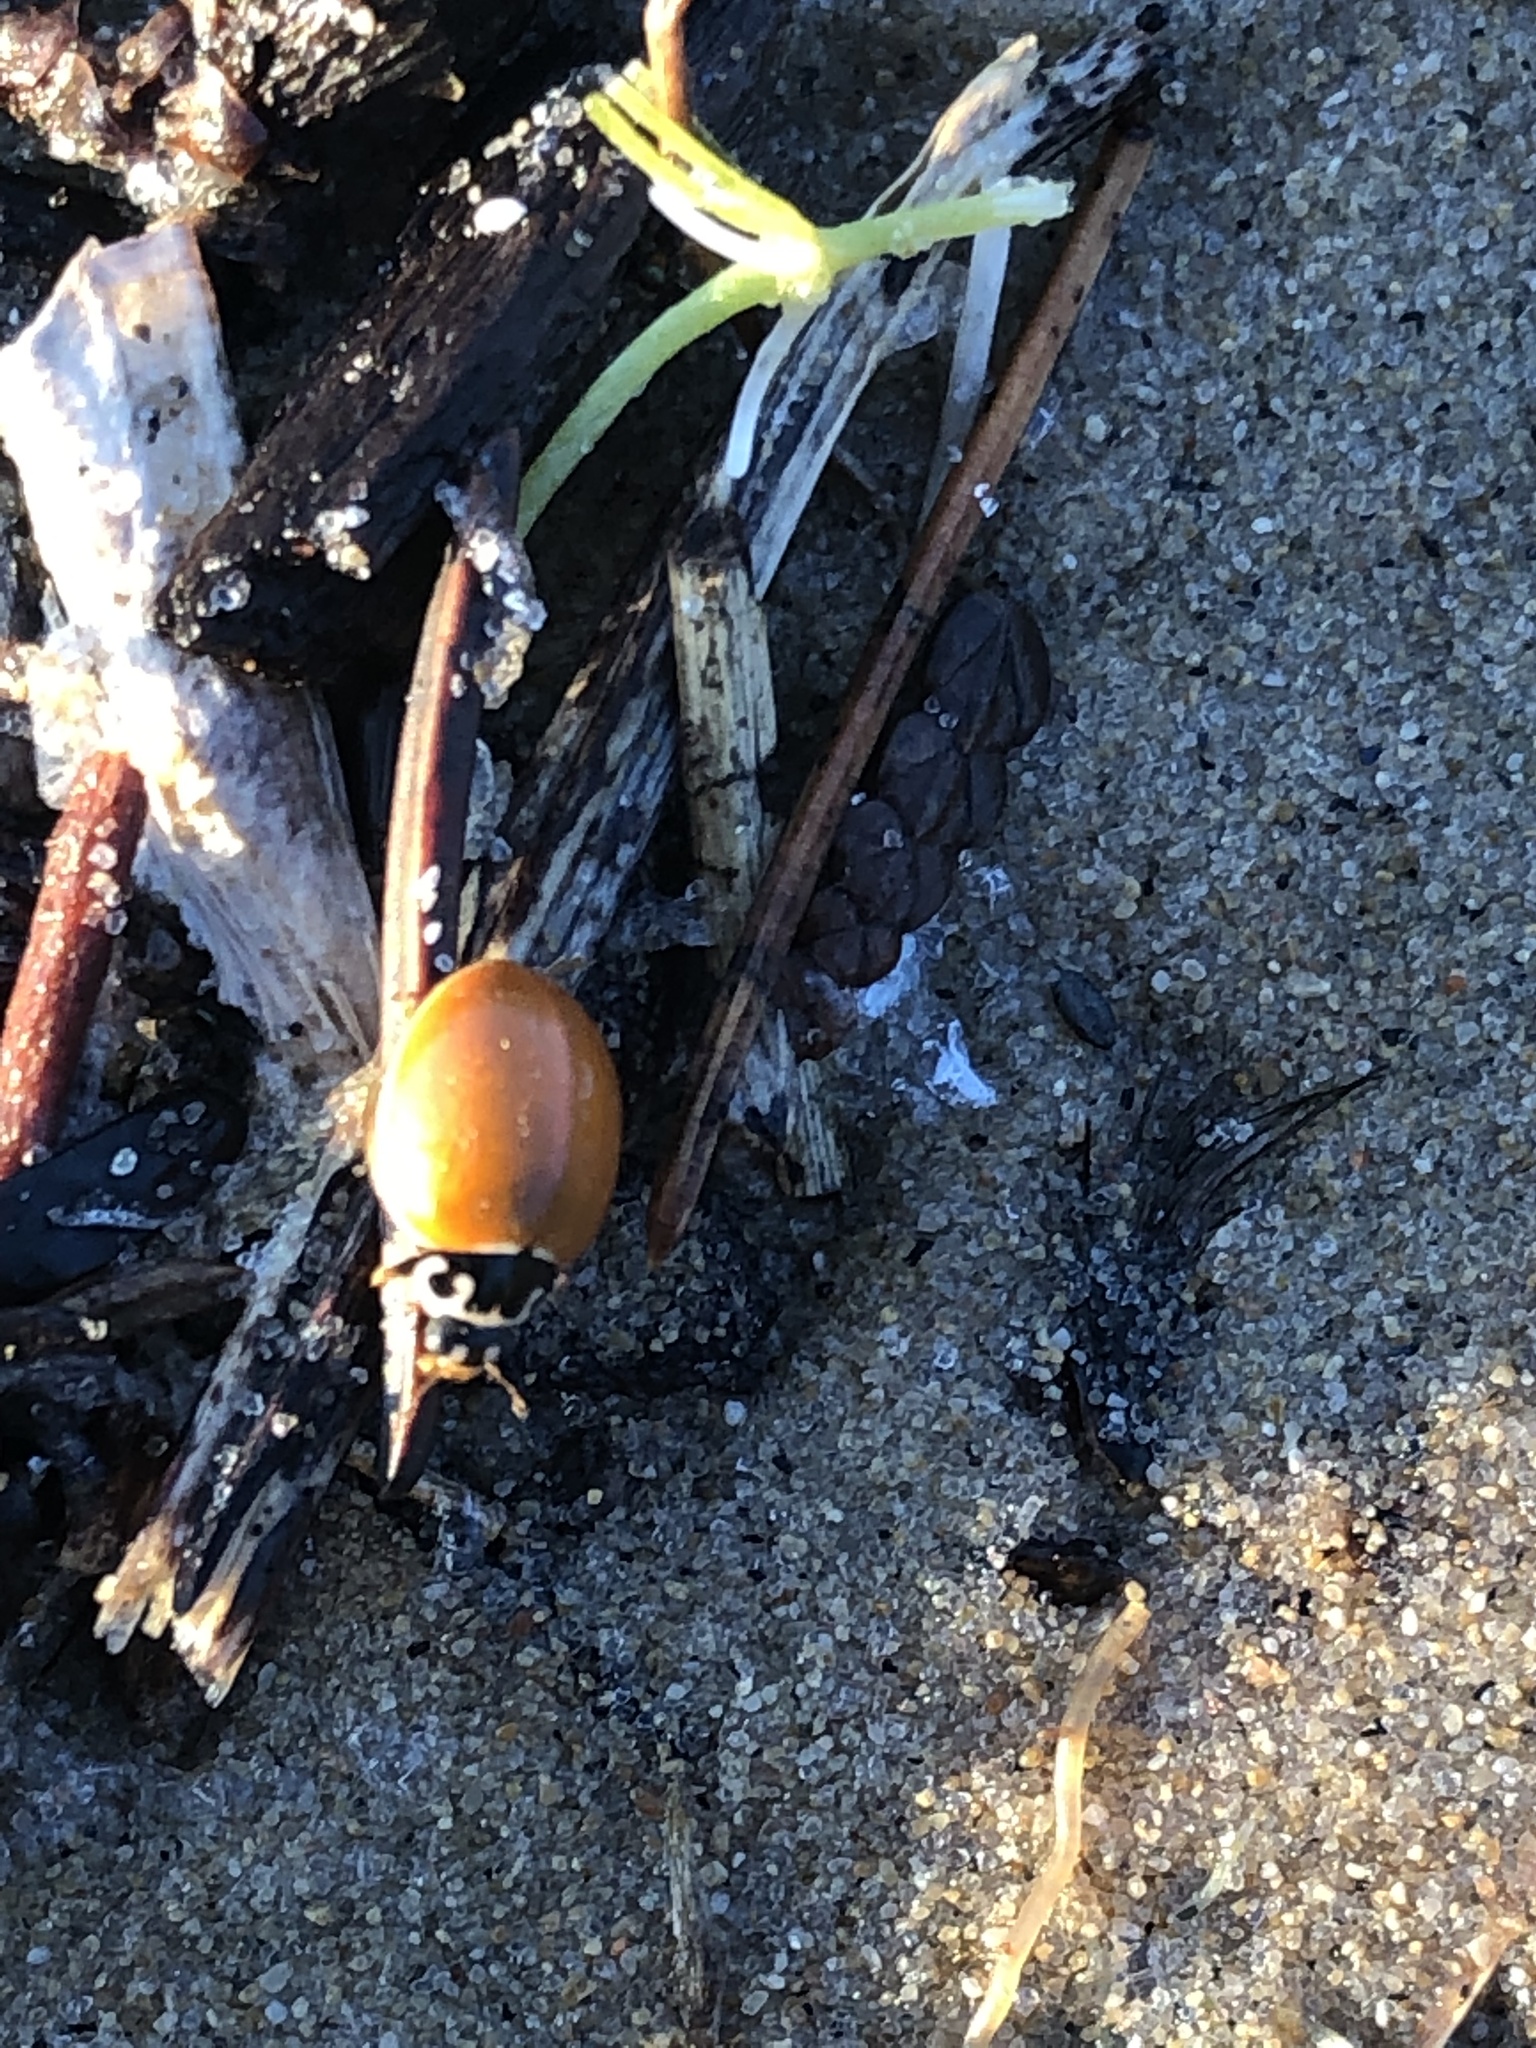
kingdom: Animalia
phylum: Arthropoda
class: Insecta
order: Coleoptera
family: Coccinellidae
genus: Cycloneda
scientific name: Cycloneda munda
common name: Polished lady beetle
